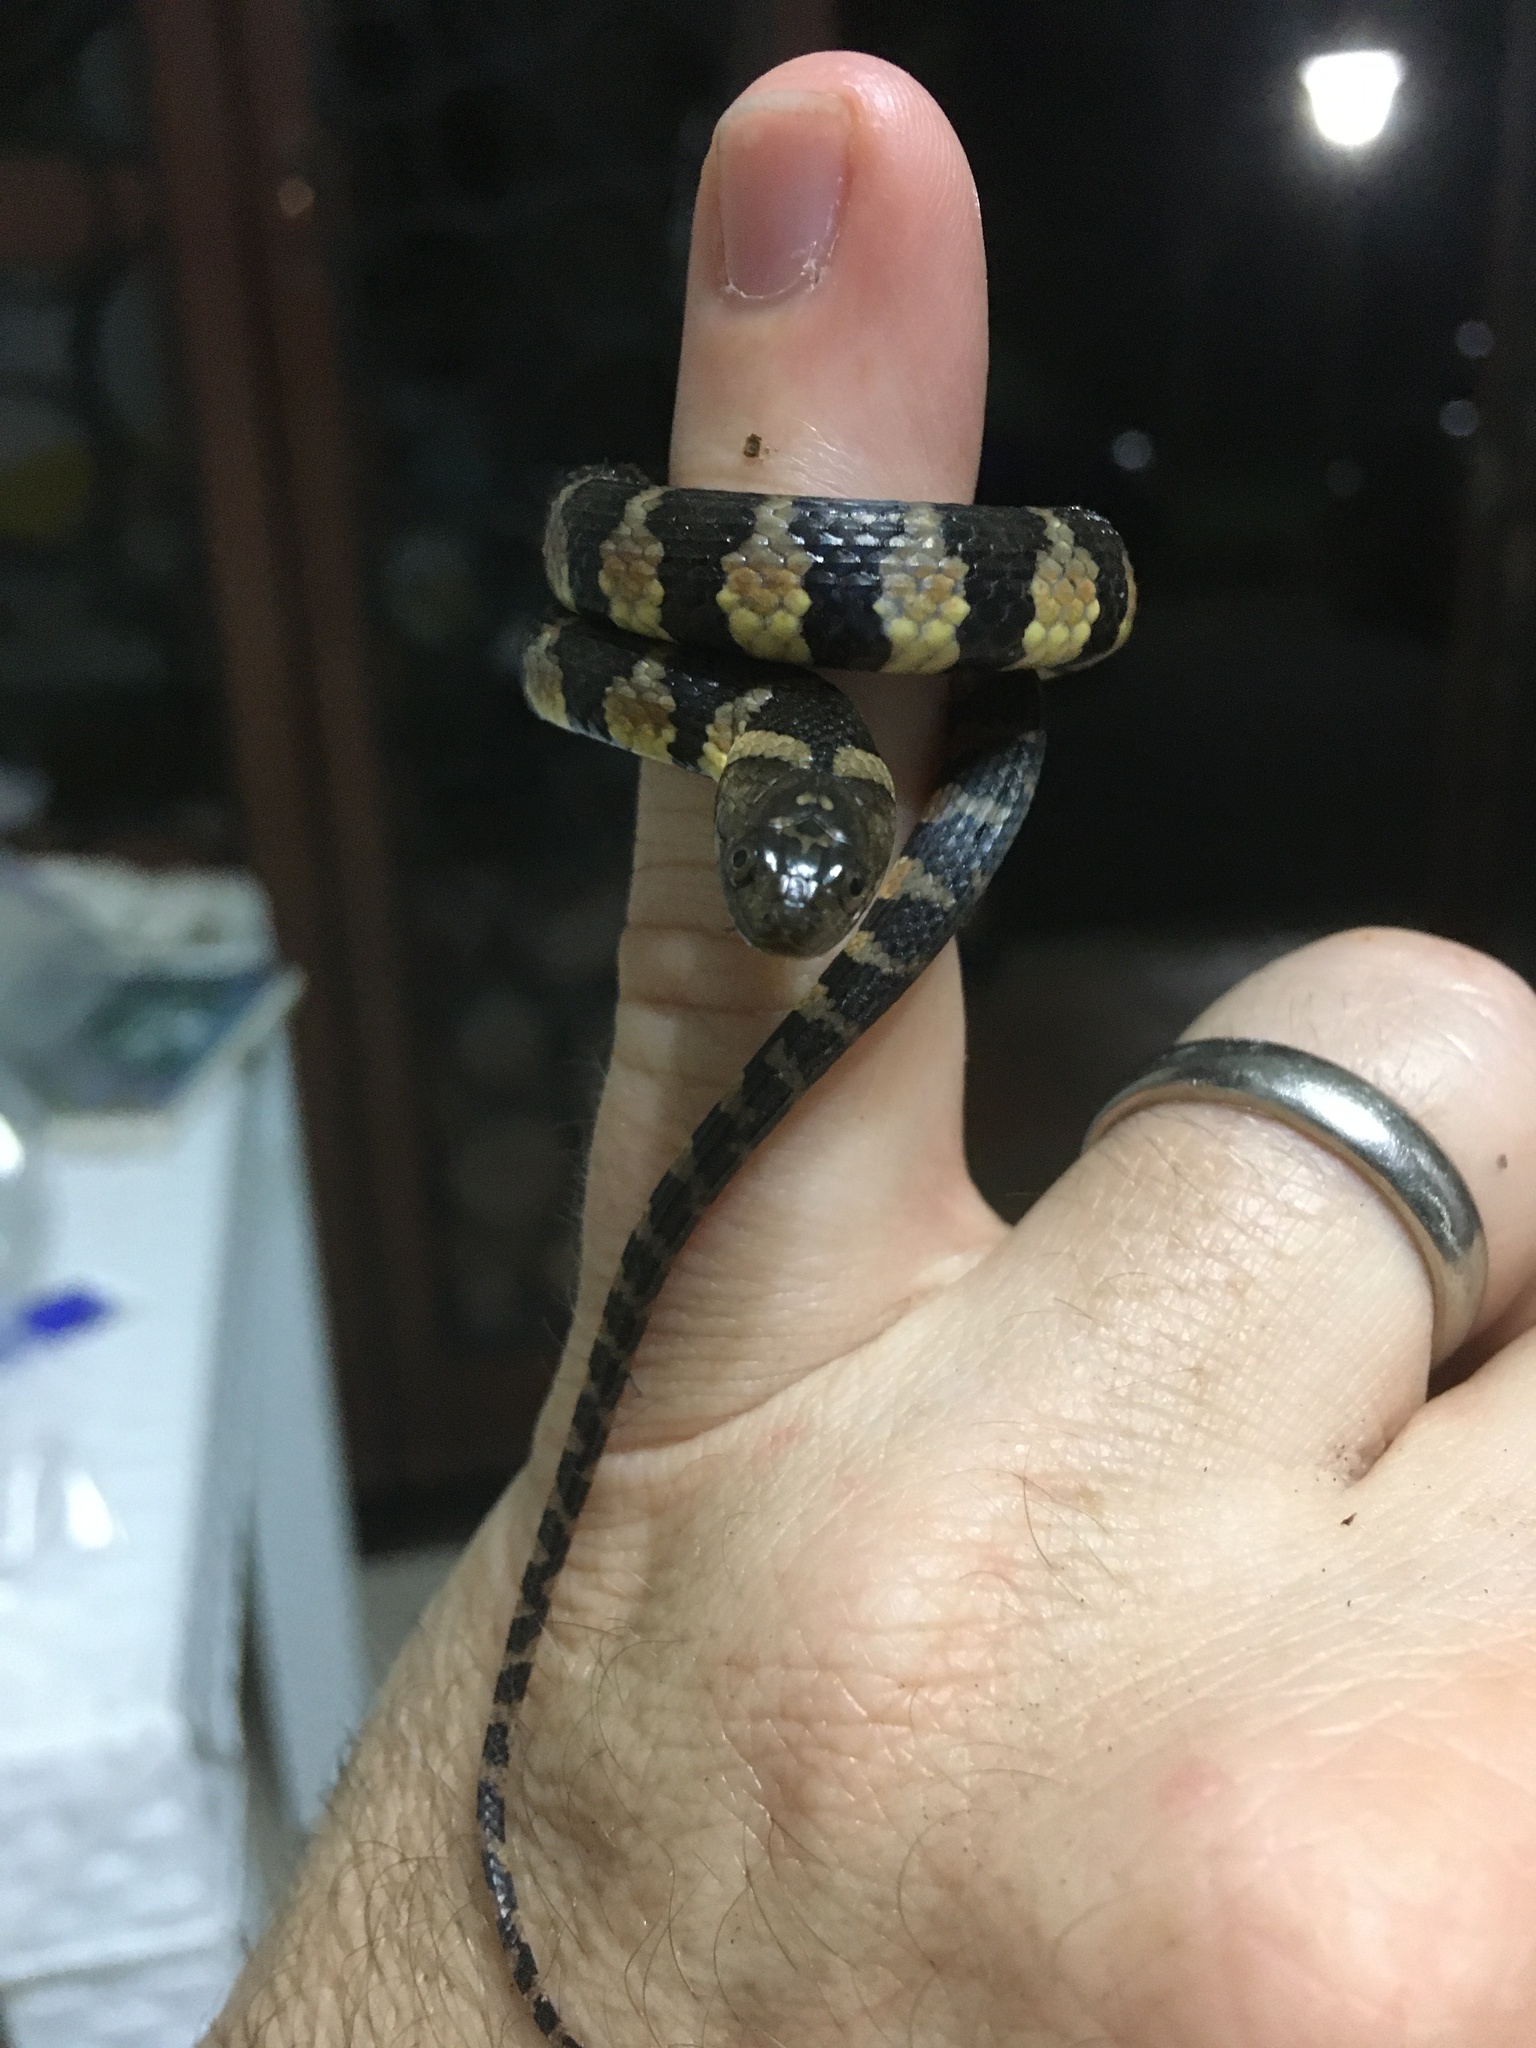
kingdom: Animalia
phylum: Chordata
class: Squamata
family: Colubridae
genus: Helicops
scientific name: Helicops angulatus
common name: Mountain keelback
